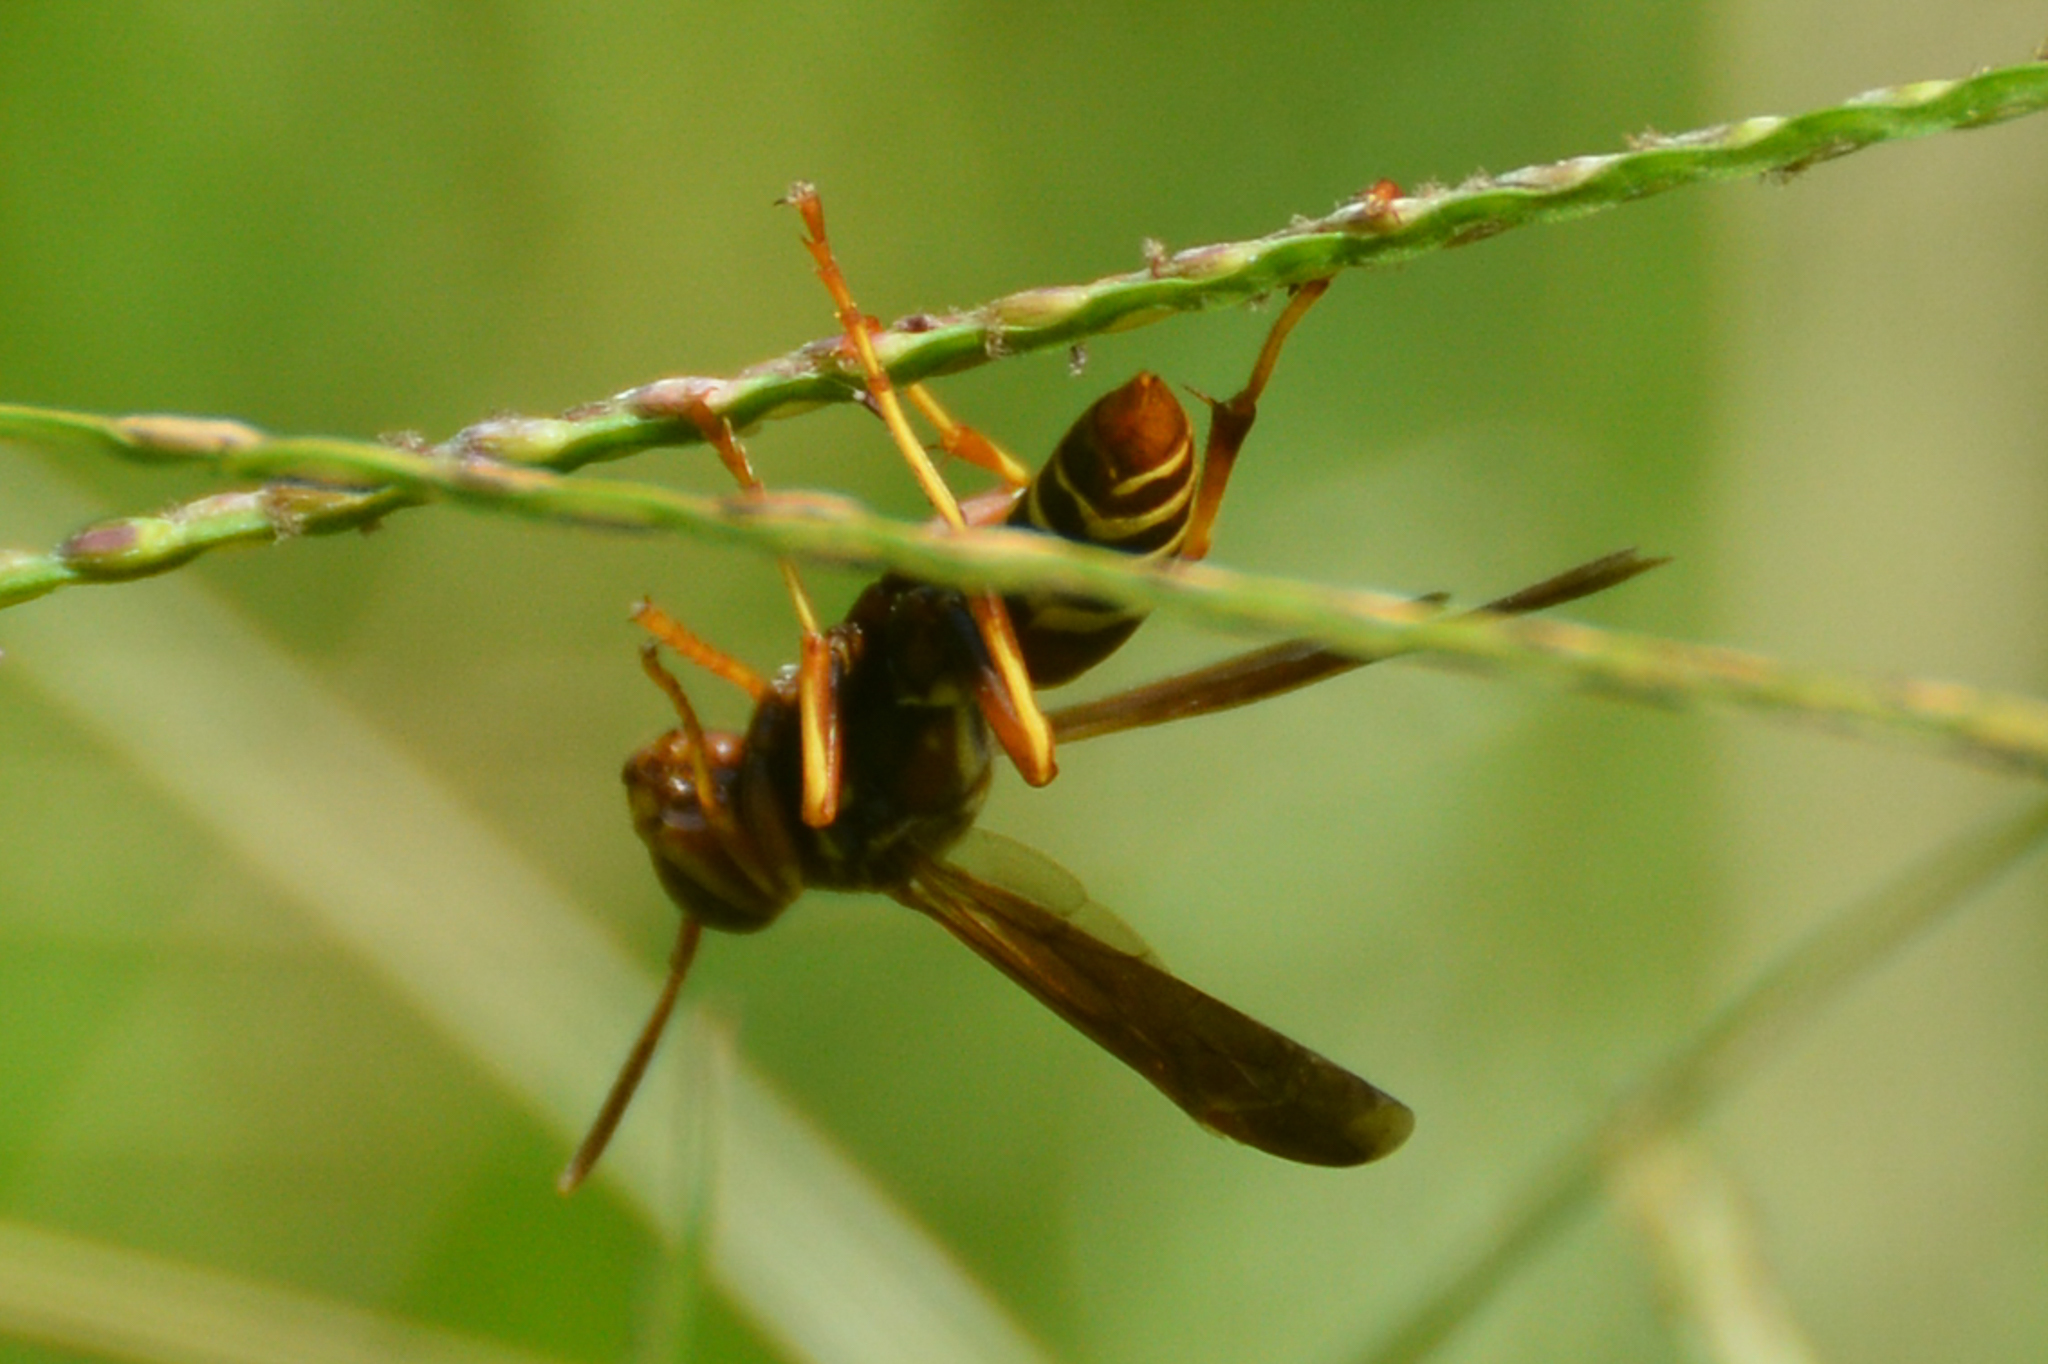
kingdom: Animalia
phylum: Arthropoda
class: Insecta
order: Hymenoptera
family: Eumenidae
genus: Polistes
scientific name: Polistes dorsalis
